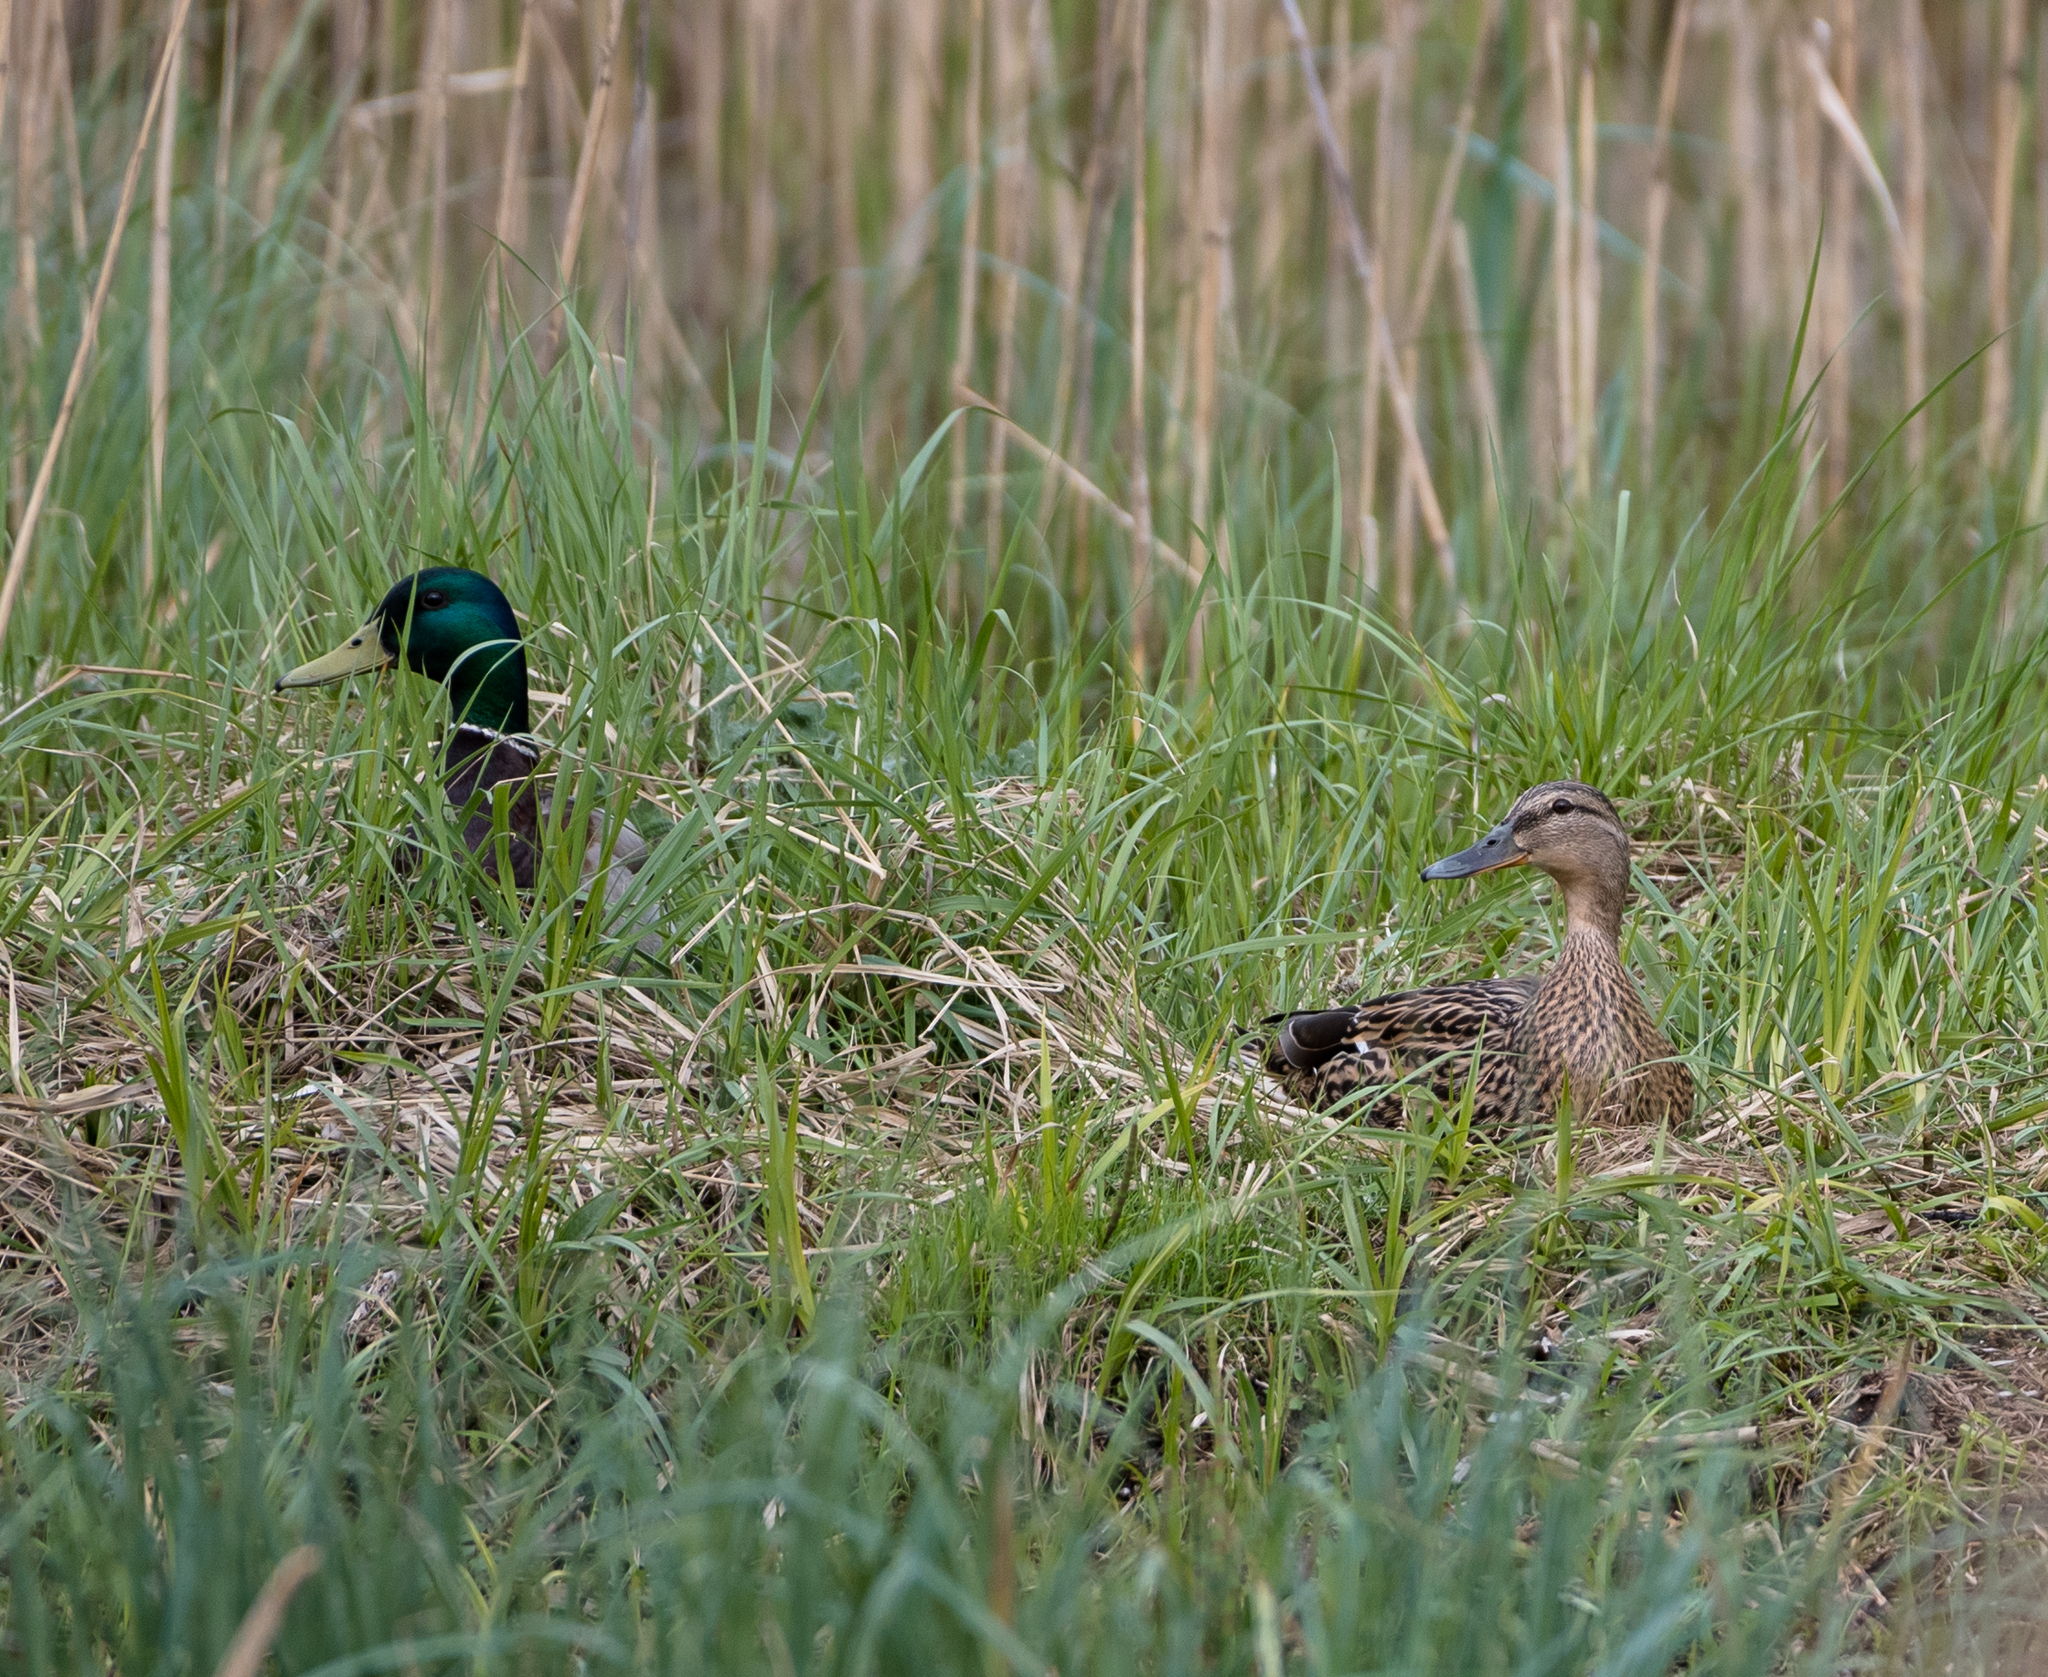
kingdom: Animalia
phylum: Chordata
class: Aves
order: Anseriformes
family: Anatidae
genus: Anas
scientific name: Anas platyrhynchos
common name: Mallard
